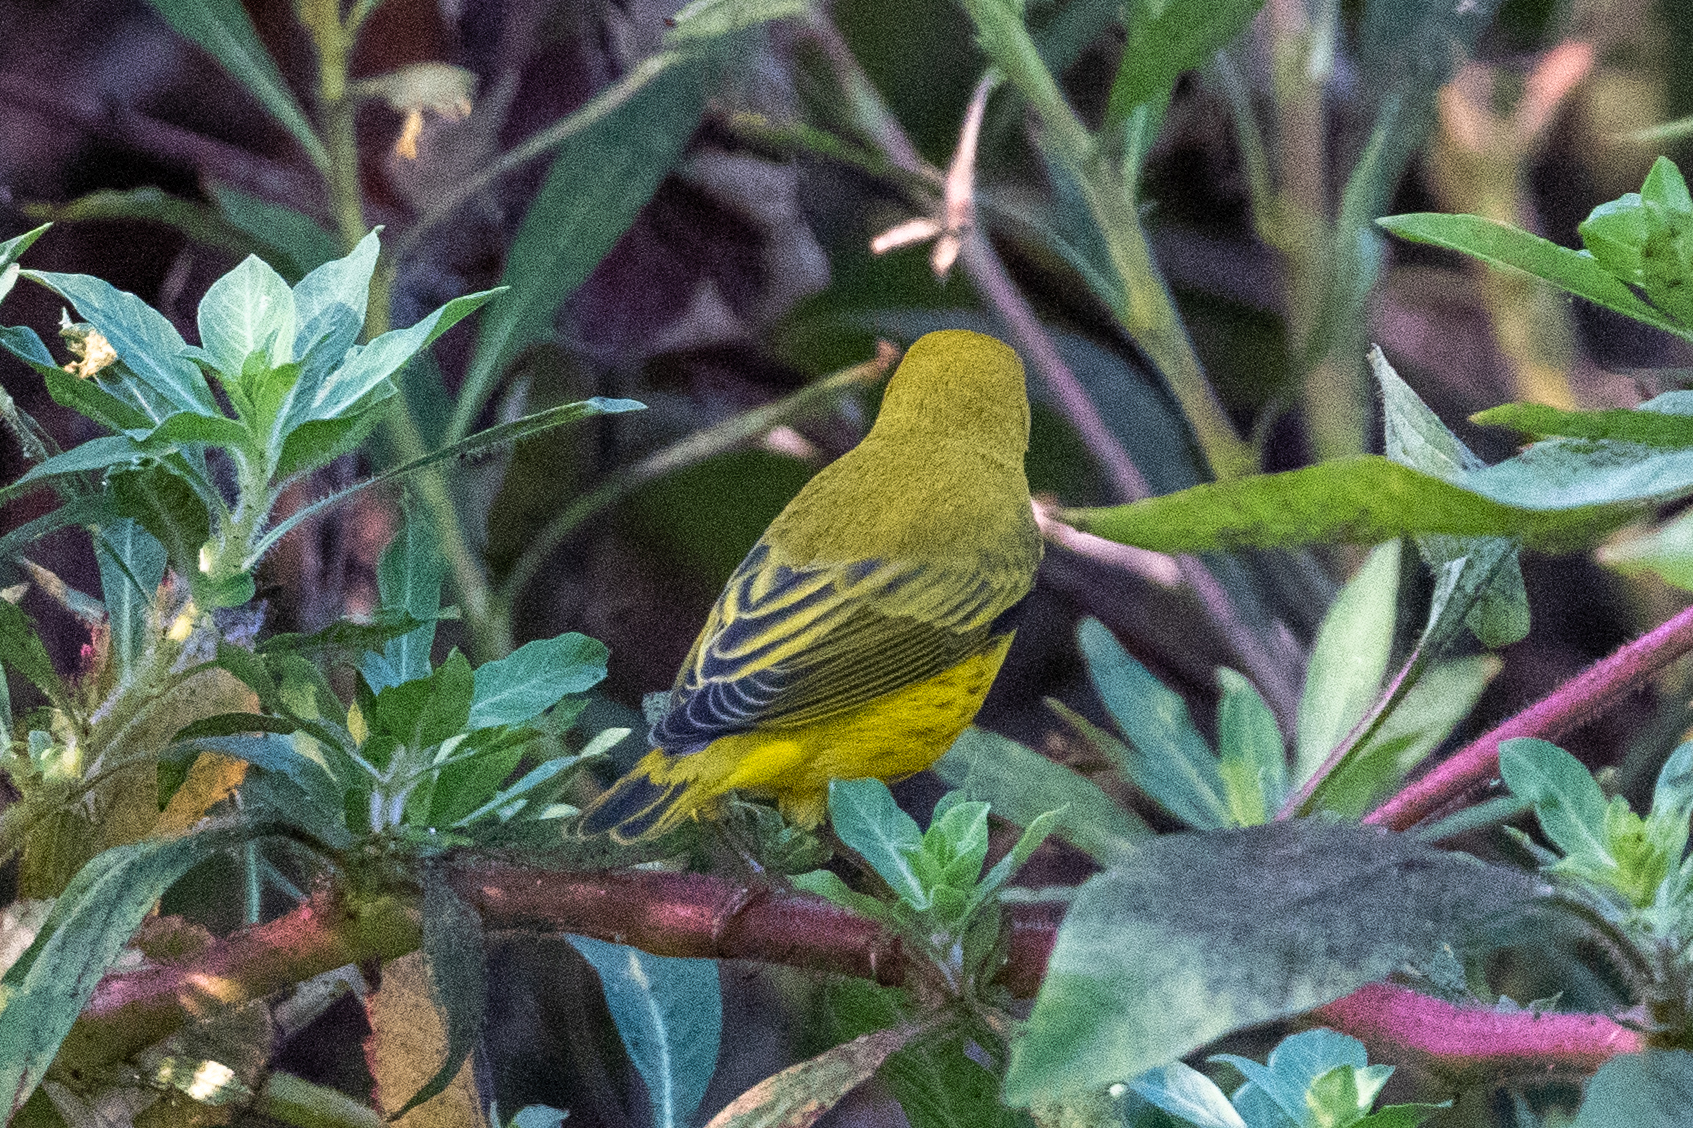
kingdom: Animalia
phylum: Chordata
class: Aves
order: Passeriformes
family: Parulidae
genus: Setophaga
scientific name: Setophaga petechia
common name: Yellow warbler
